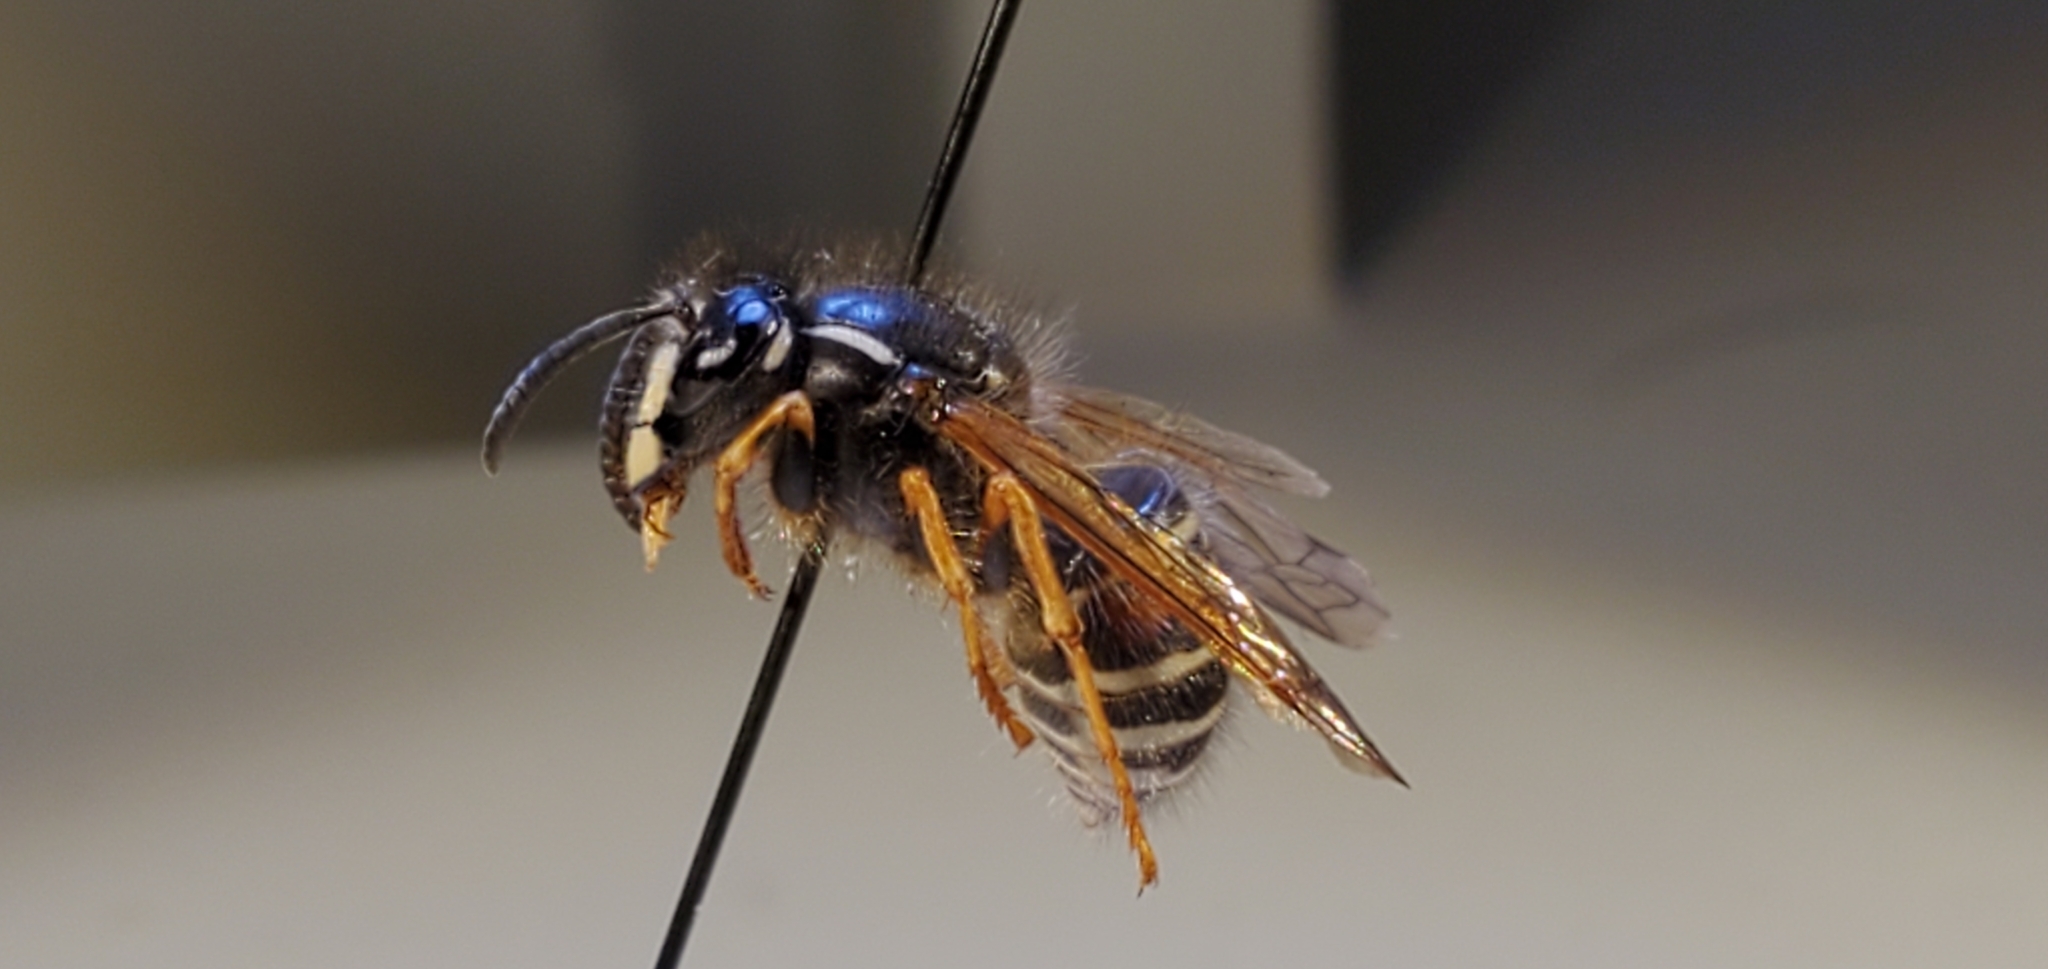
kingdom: Animalia
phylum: Arthropoda
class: Insecta
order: Hymenoptera
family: Vespidae
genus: Dolichovespula
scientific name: Dolichovespula norwegica
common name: Norwegian wasp
